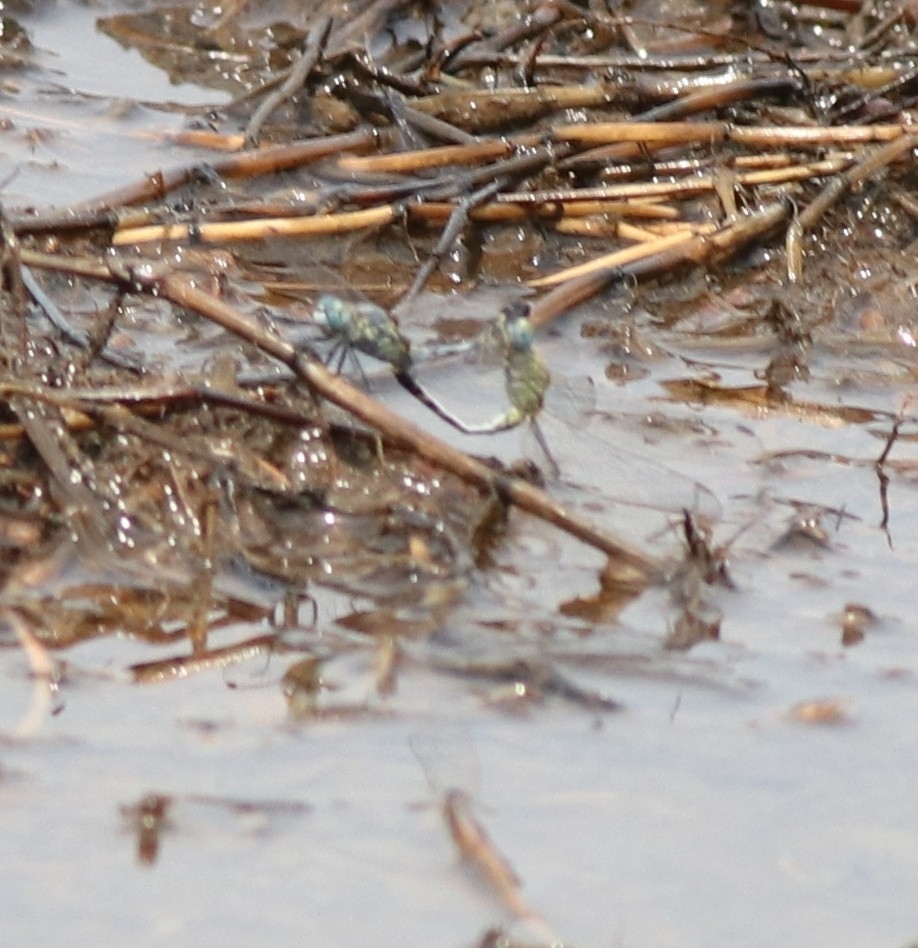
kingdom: Animalia
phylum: Arthropoda
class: Insecta
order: Odonata
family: Libellulidae
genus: Diplacodes
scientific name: Diplacodes trivialis
